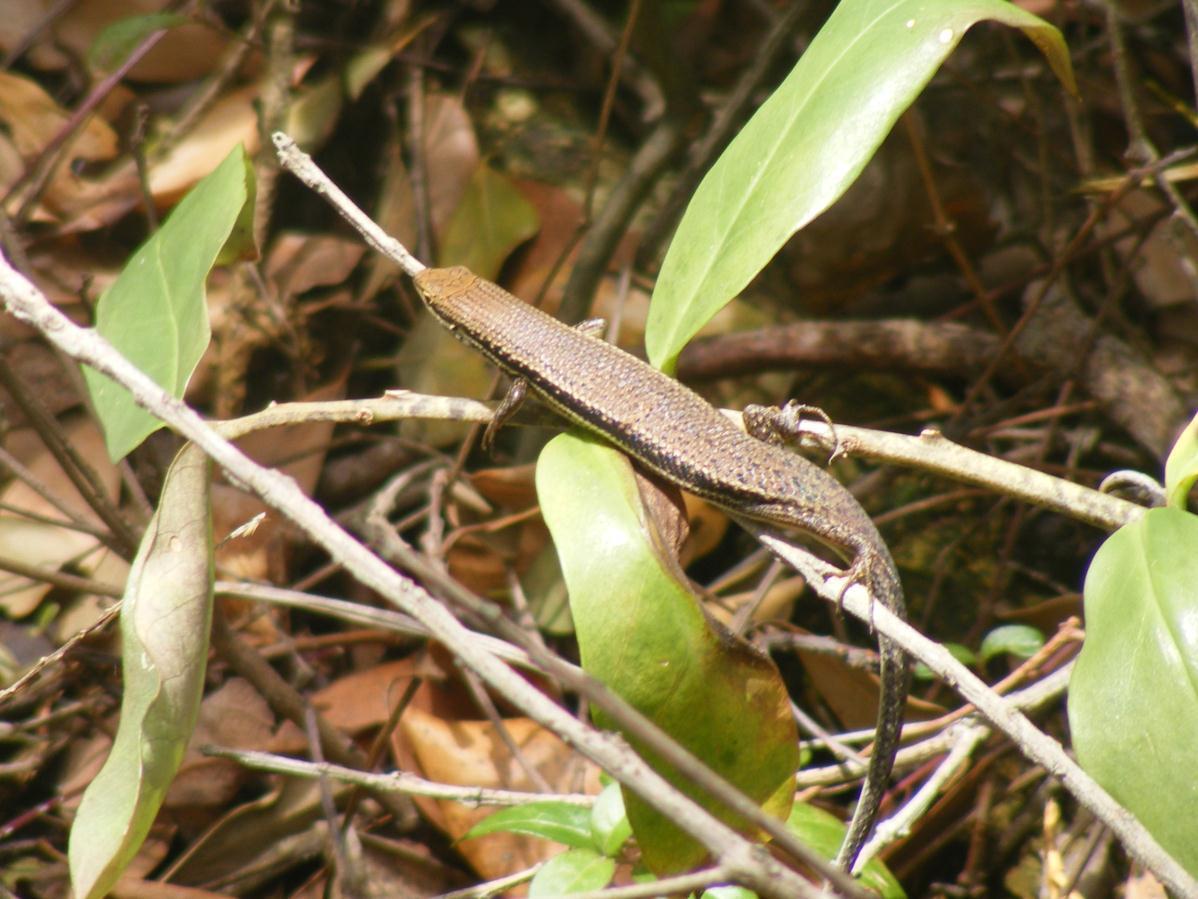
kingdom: Animalia
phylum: Chordata
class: Squamata
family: Scincidae
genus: Trachylepis
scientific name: Trachylepis depressa
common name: Eastern coastal skink
